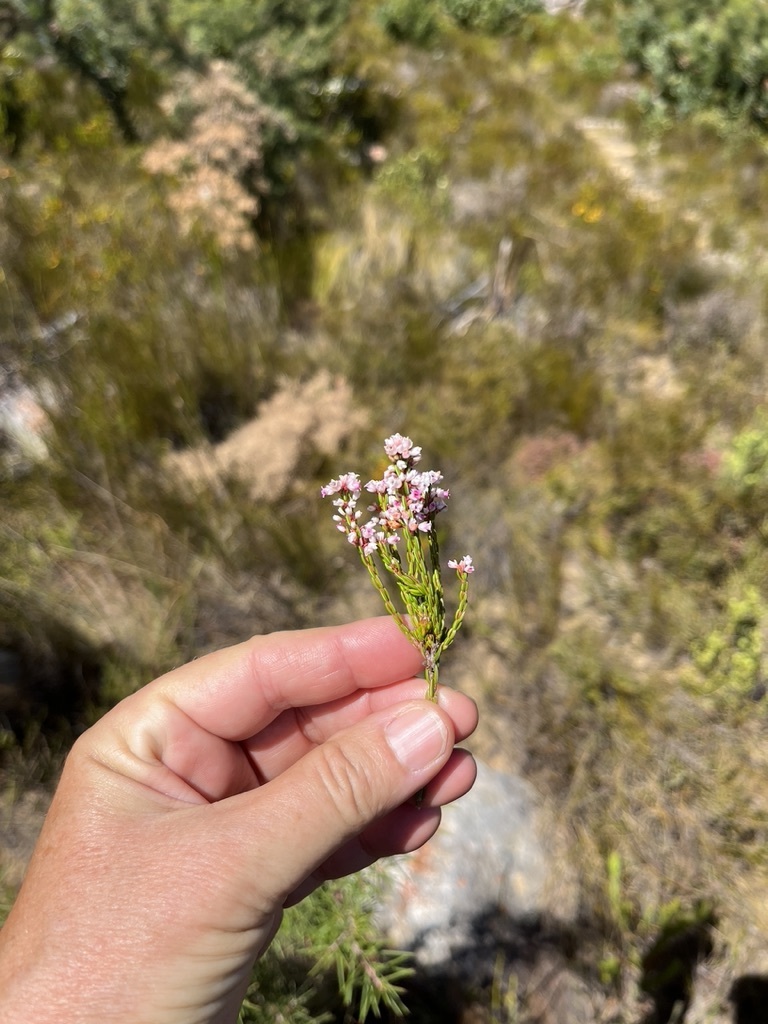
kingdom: Plantae
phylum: Tracheophyta
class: Magnoliopsida
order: Ericales
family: Ericaceae
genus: Erica
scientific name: Erica articularis
